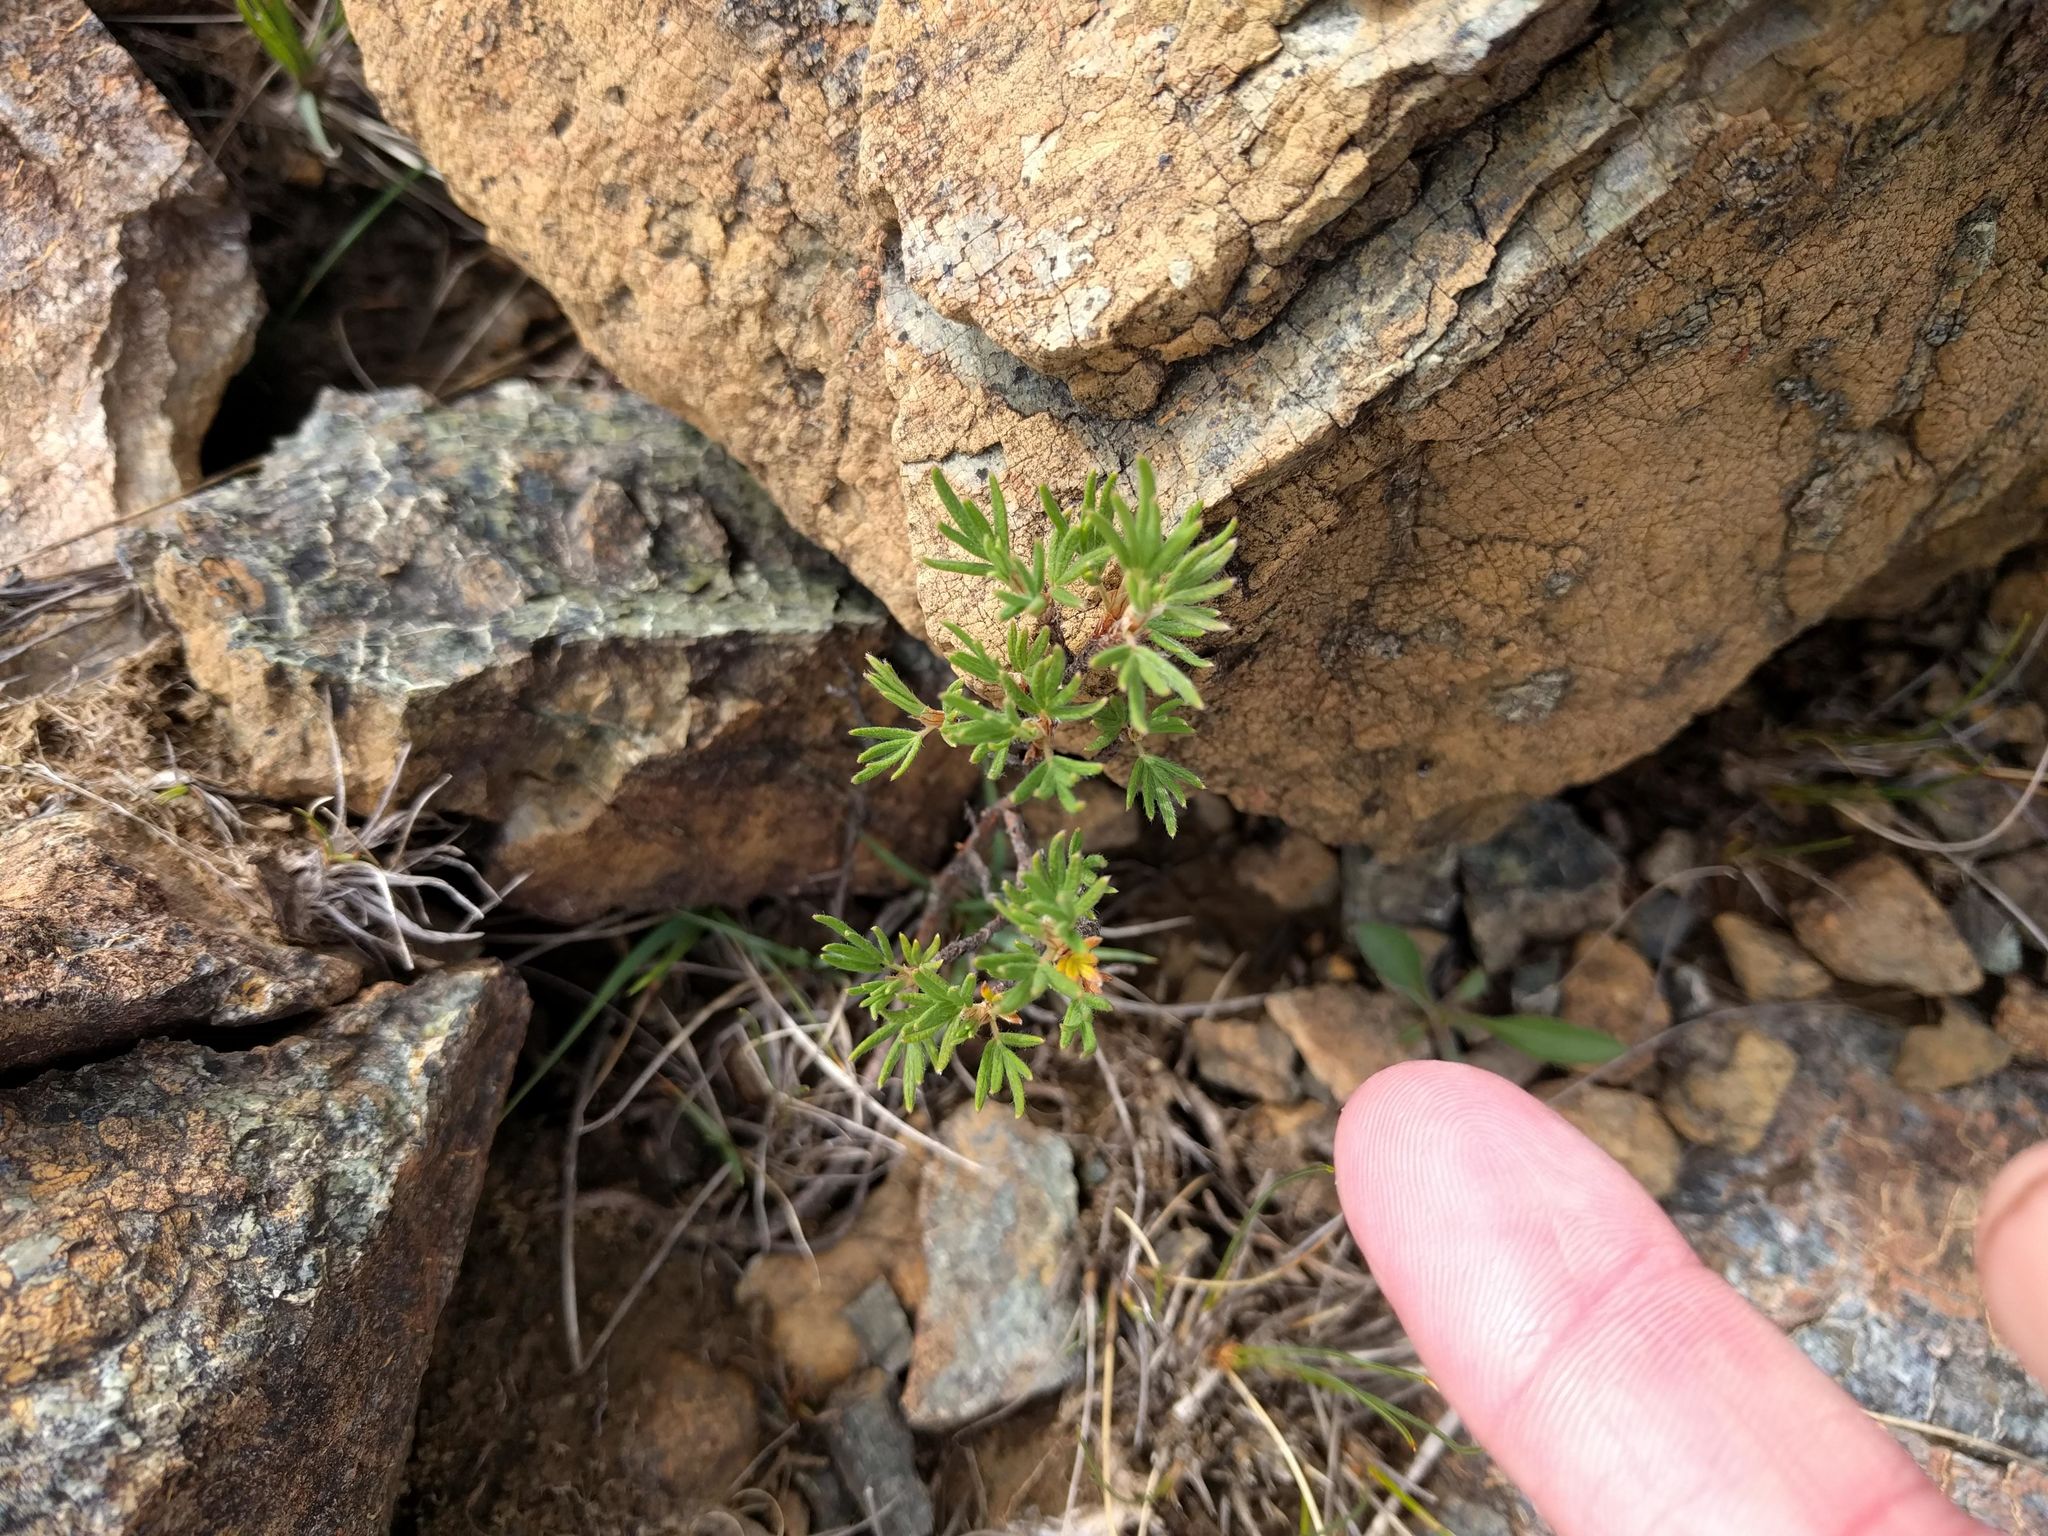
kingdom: Plantae
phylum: Tracheophyta
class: Magnoliopsida
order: Rosales
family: Rosaceae
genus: Dasiphora
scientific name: Dasiphora fruticosa
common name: Shrubby cinquefoil
